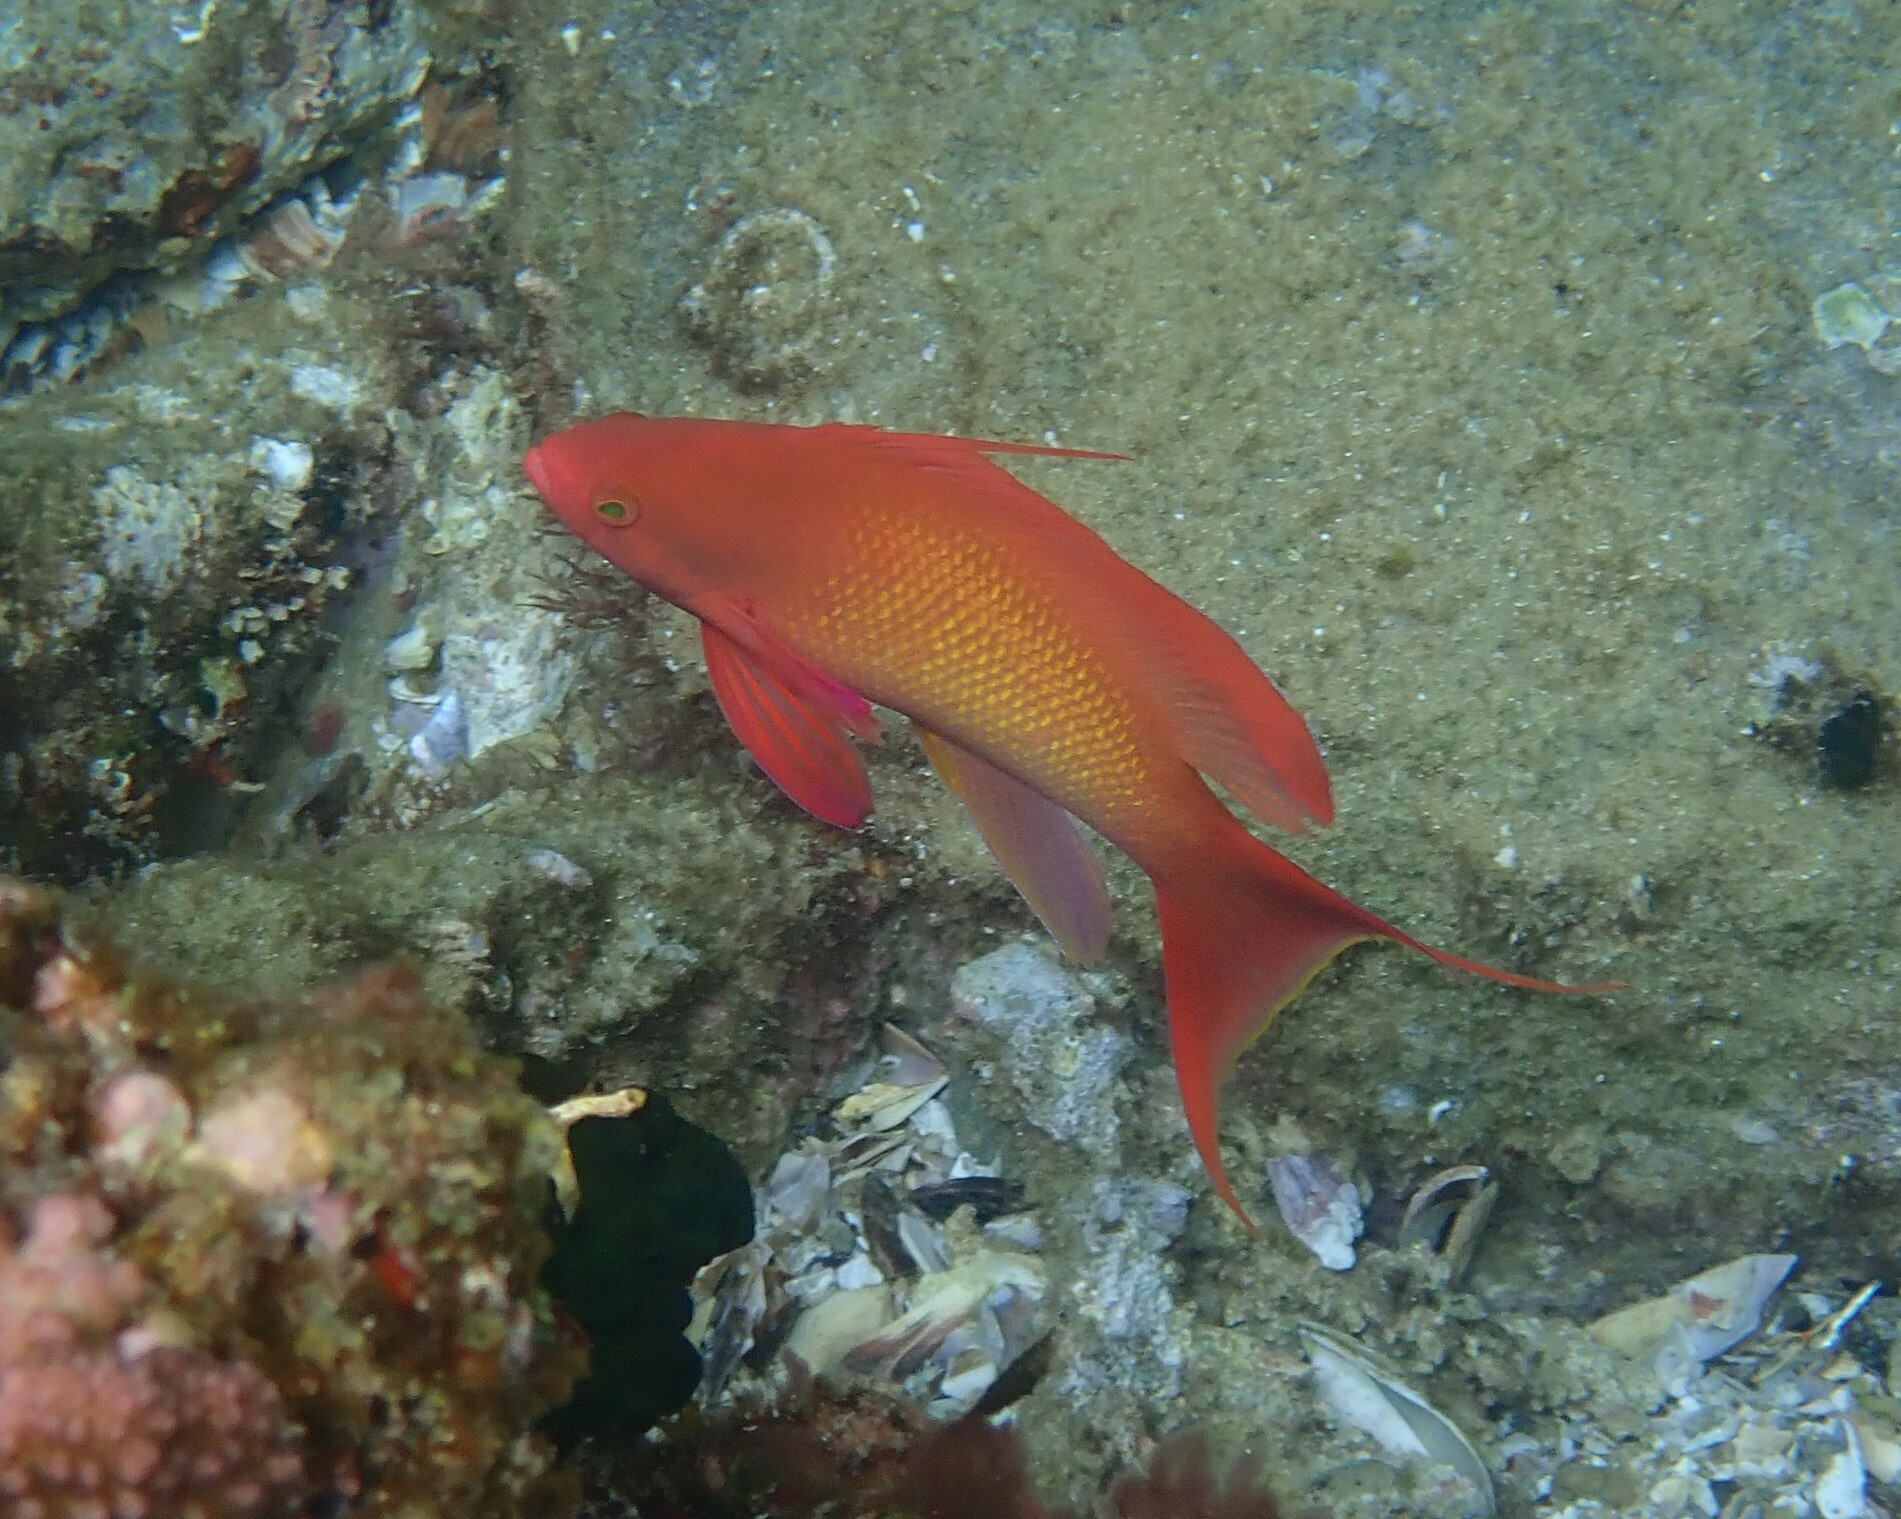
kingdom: Animalia
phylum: Chordata
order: Perciformes
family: Serranidae
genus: Pseudanthias
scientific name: Pseudanthias squamipinnis
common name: Scalefin anthias
